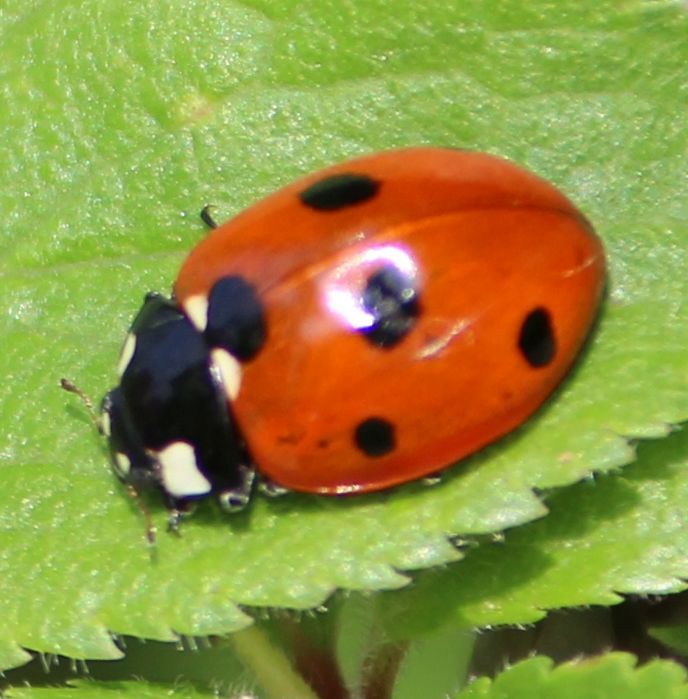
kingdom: Animalia
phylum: Arthropoda
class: Insecta
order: Coleoptera
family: Coccinellidae
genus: Coccinella
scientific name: Coccinella septempunctata
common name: Sevenspotted lady beetle
